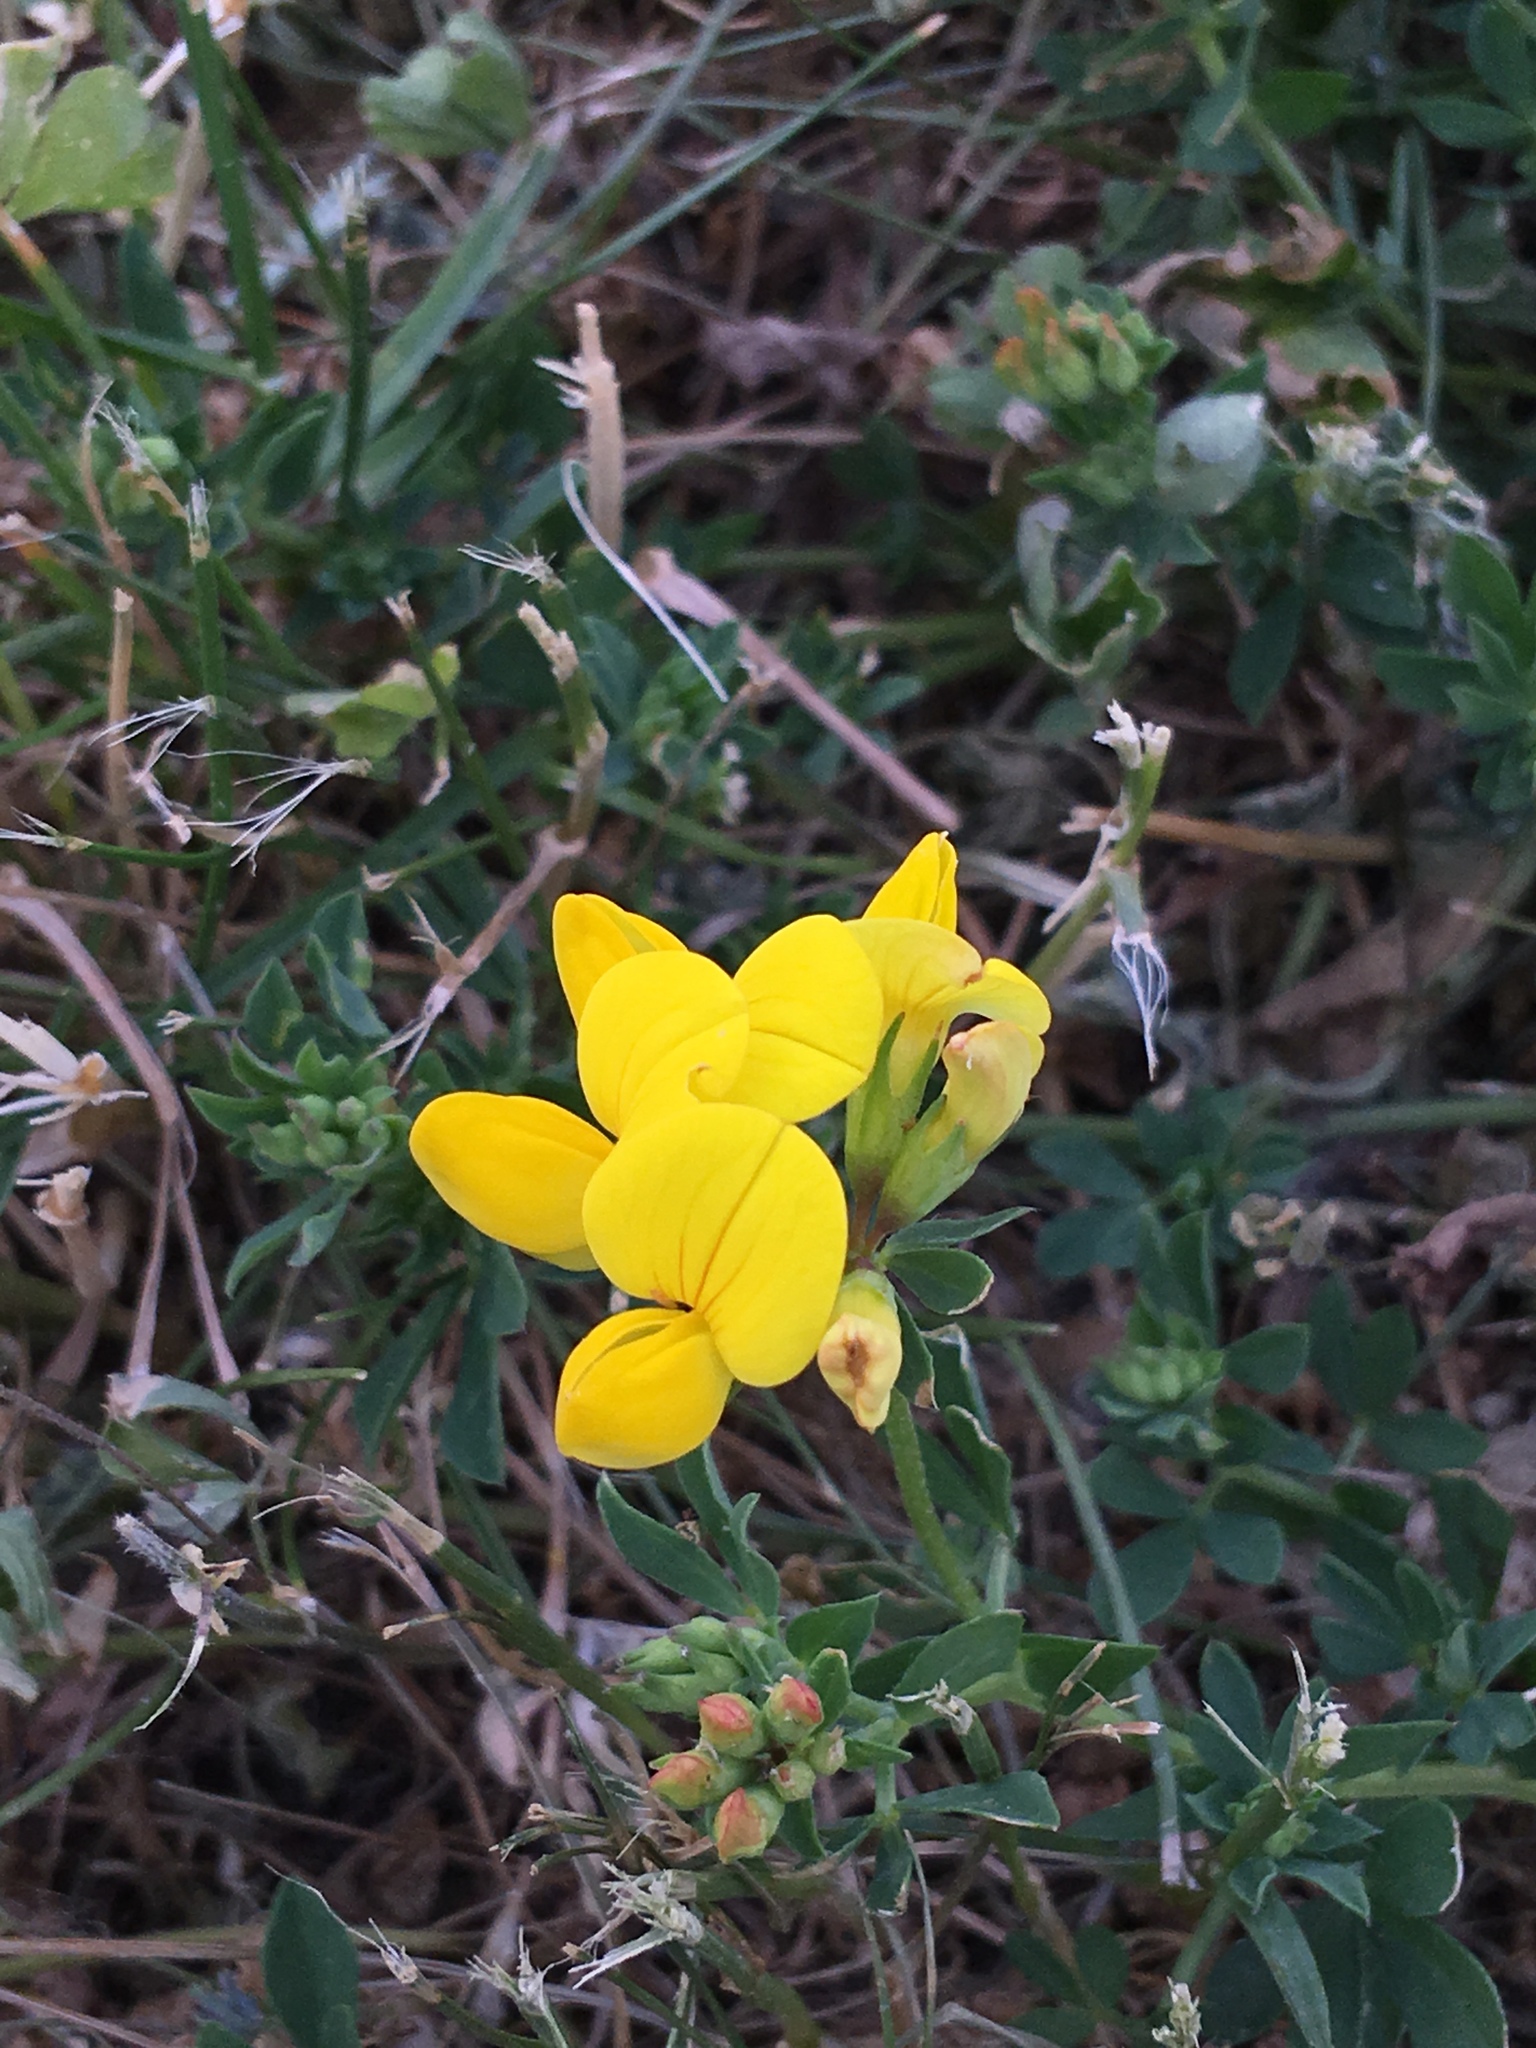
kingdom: Plantae
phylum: Tracheophyta
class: Magnoliopsida
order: Fabales
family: Fabaceae
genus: Lotus
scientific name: Lotus corniculatus
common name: Common bird's-foot-trefoil
